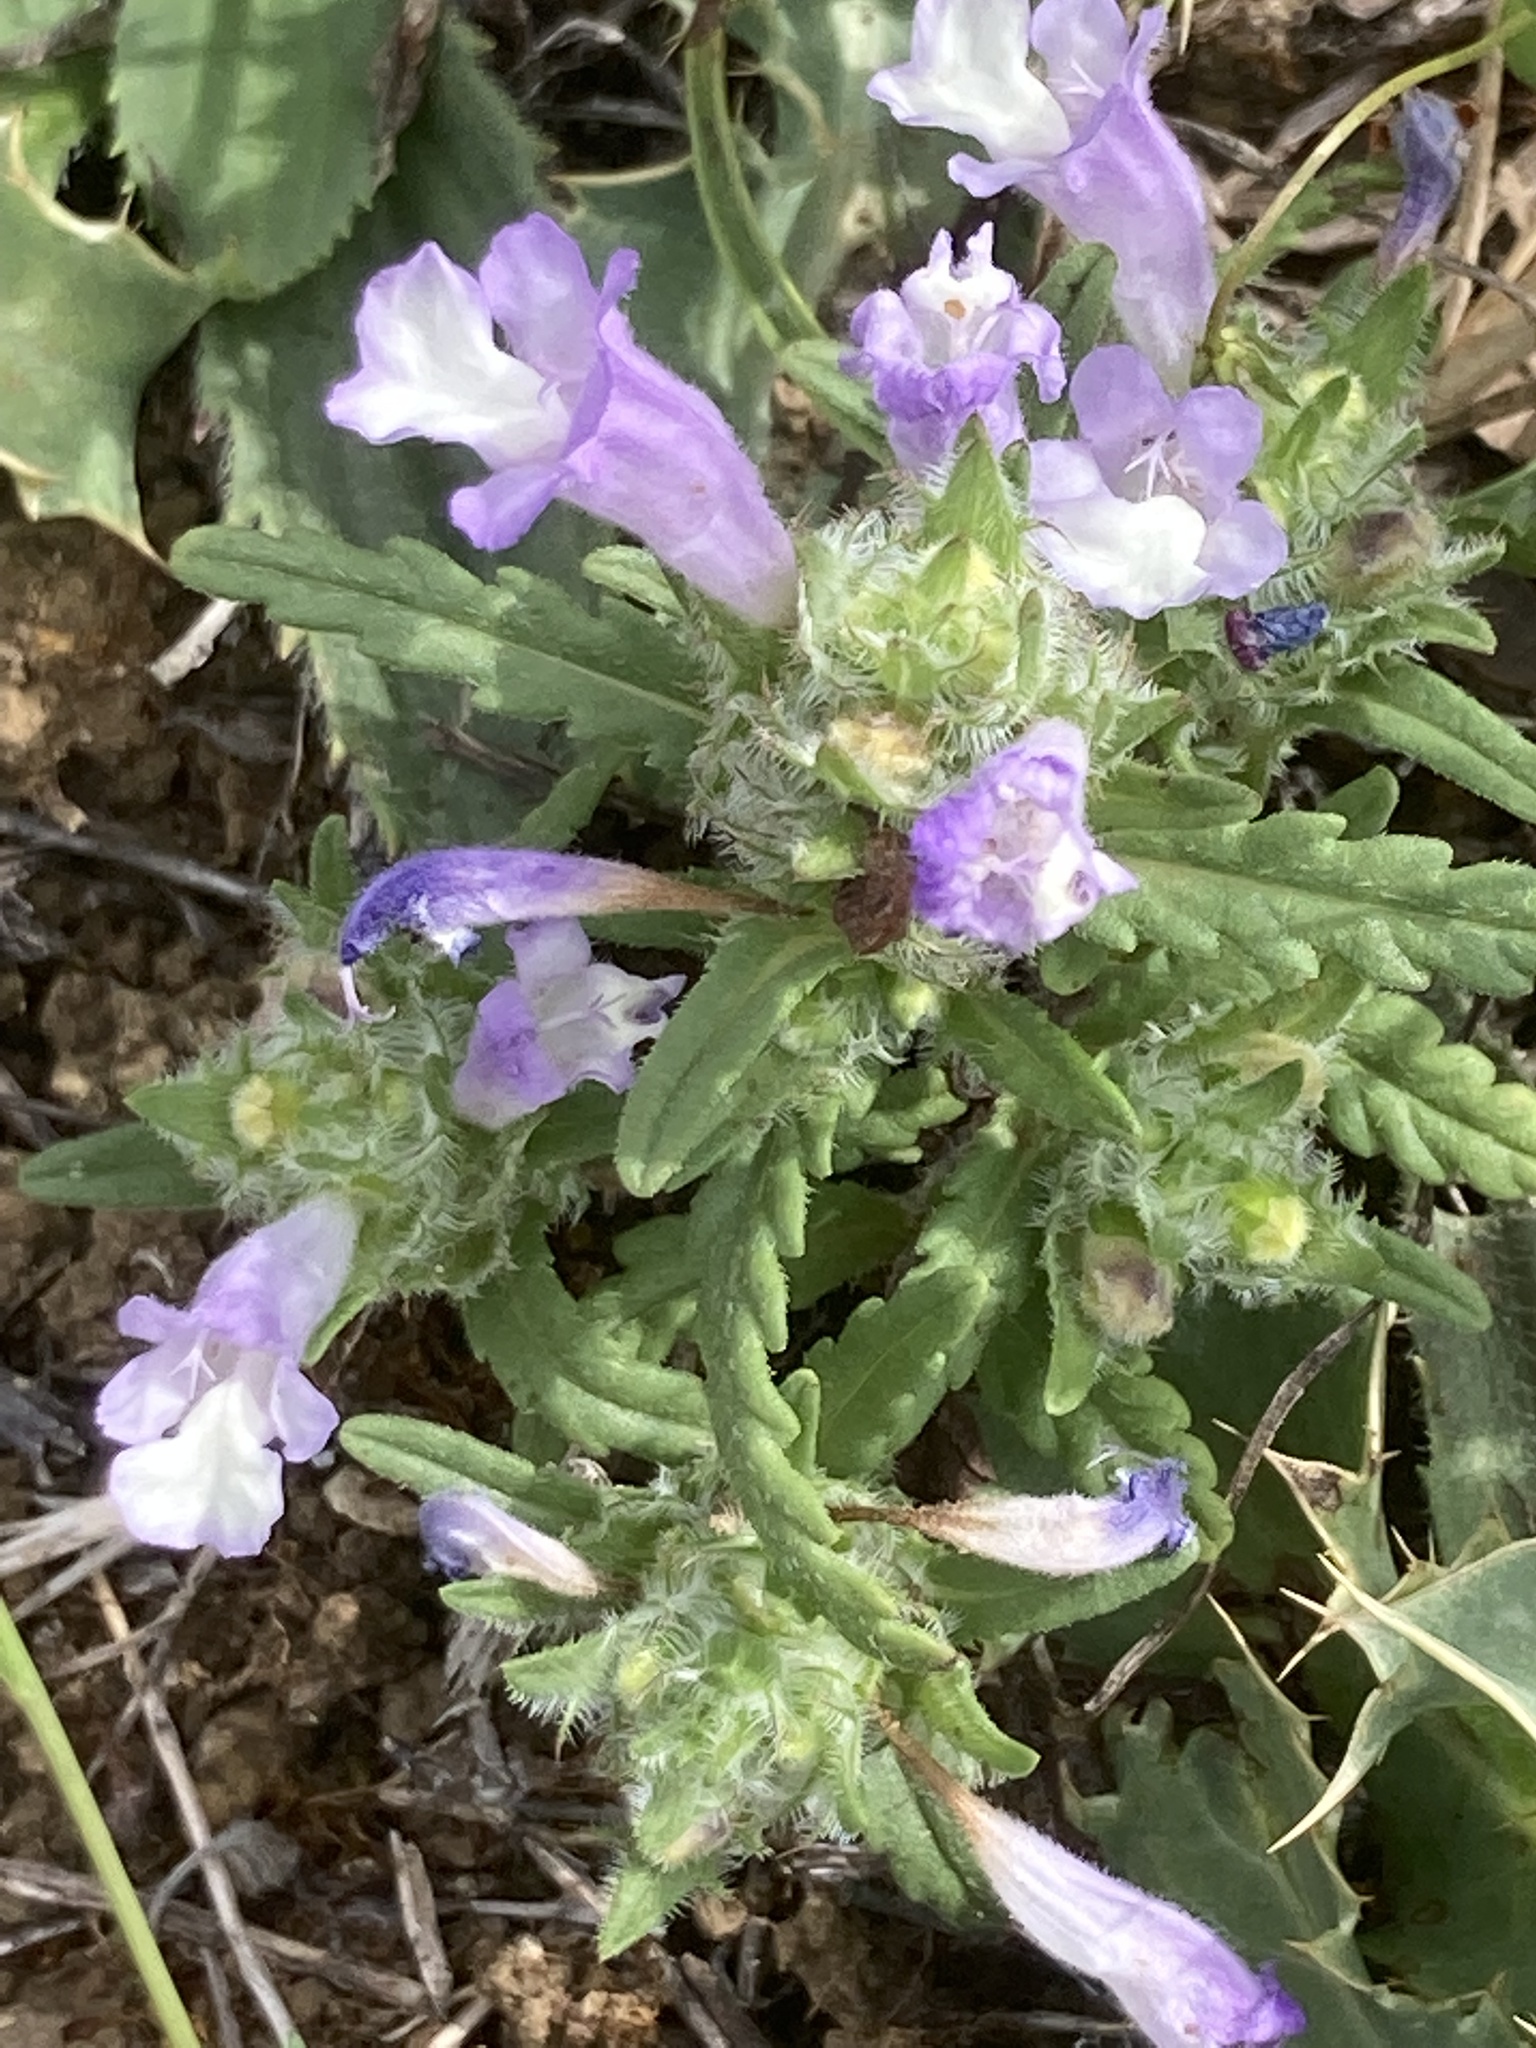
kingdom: Plantae
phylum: Tracheophyta
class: Magnoliopsida
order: Lamiales
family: Lamiaceae
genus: Cleonia
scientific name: Cleonia lusitanica
